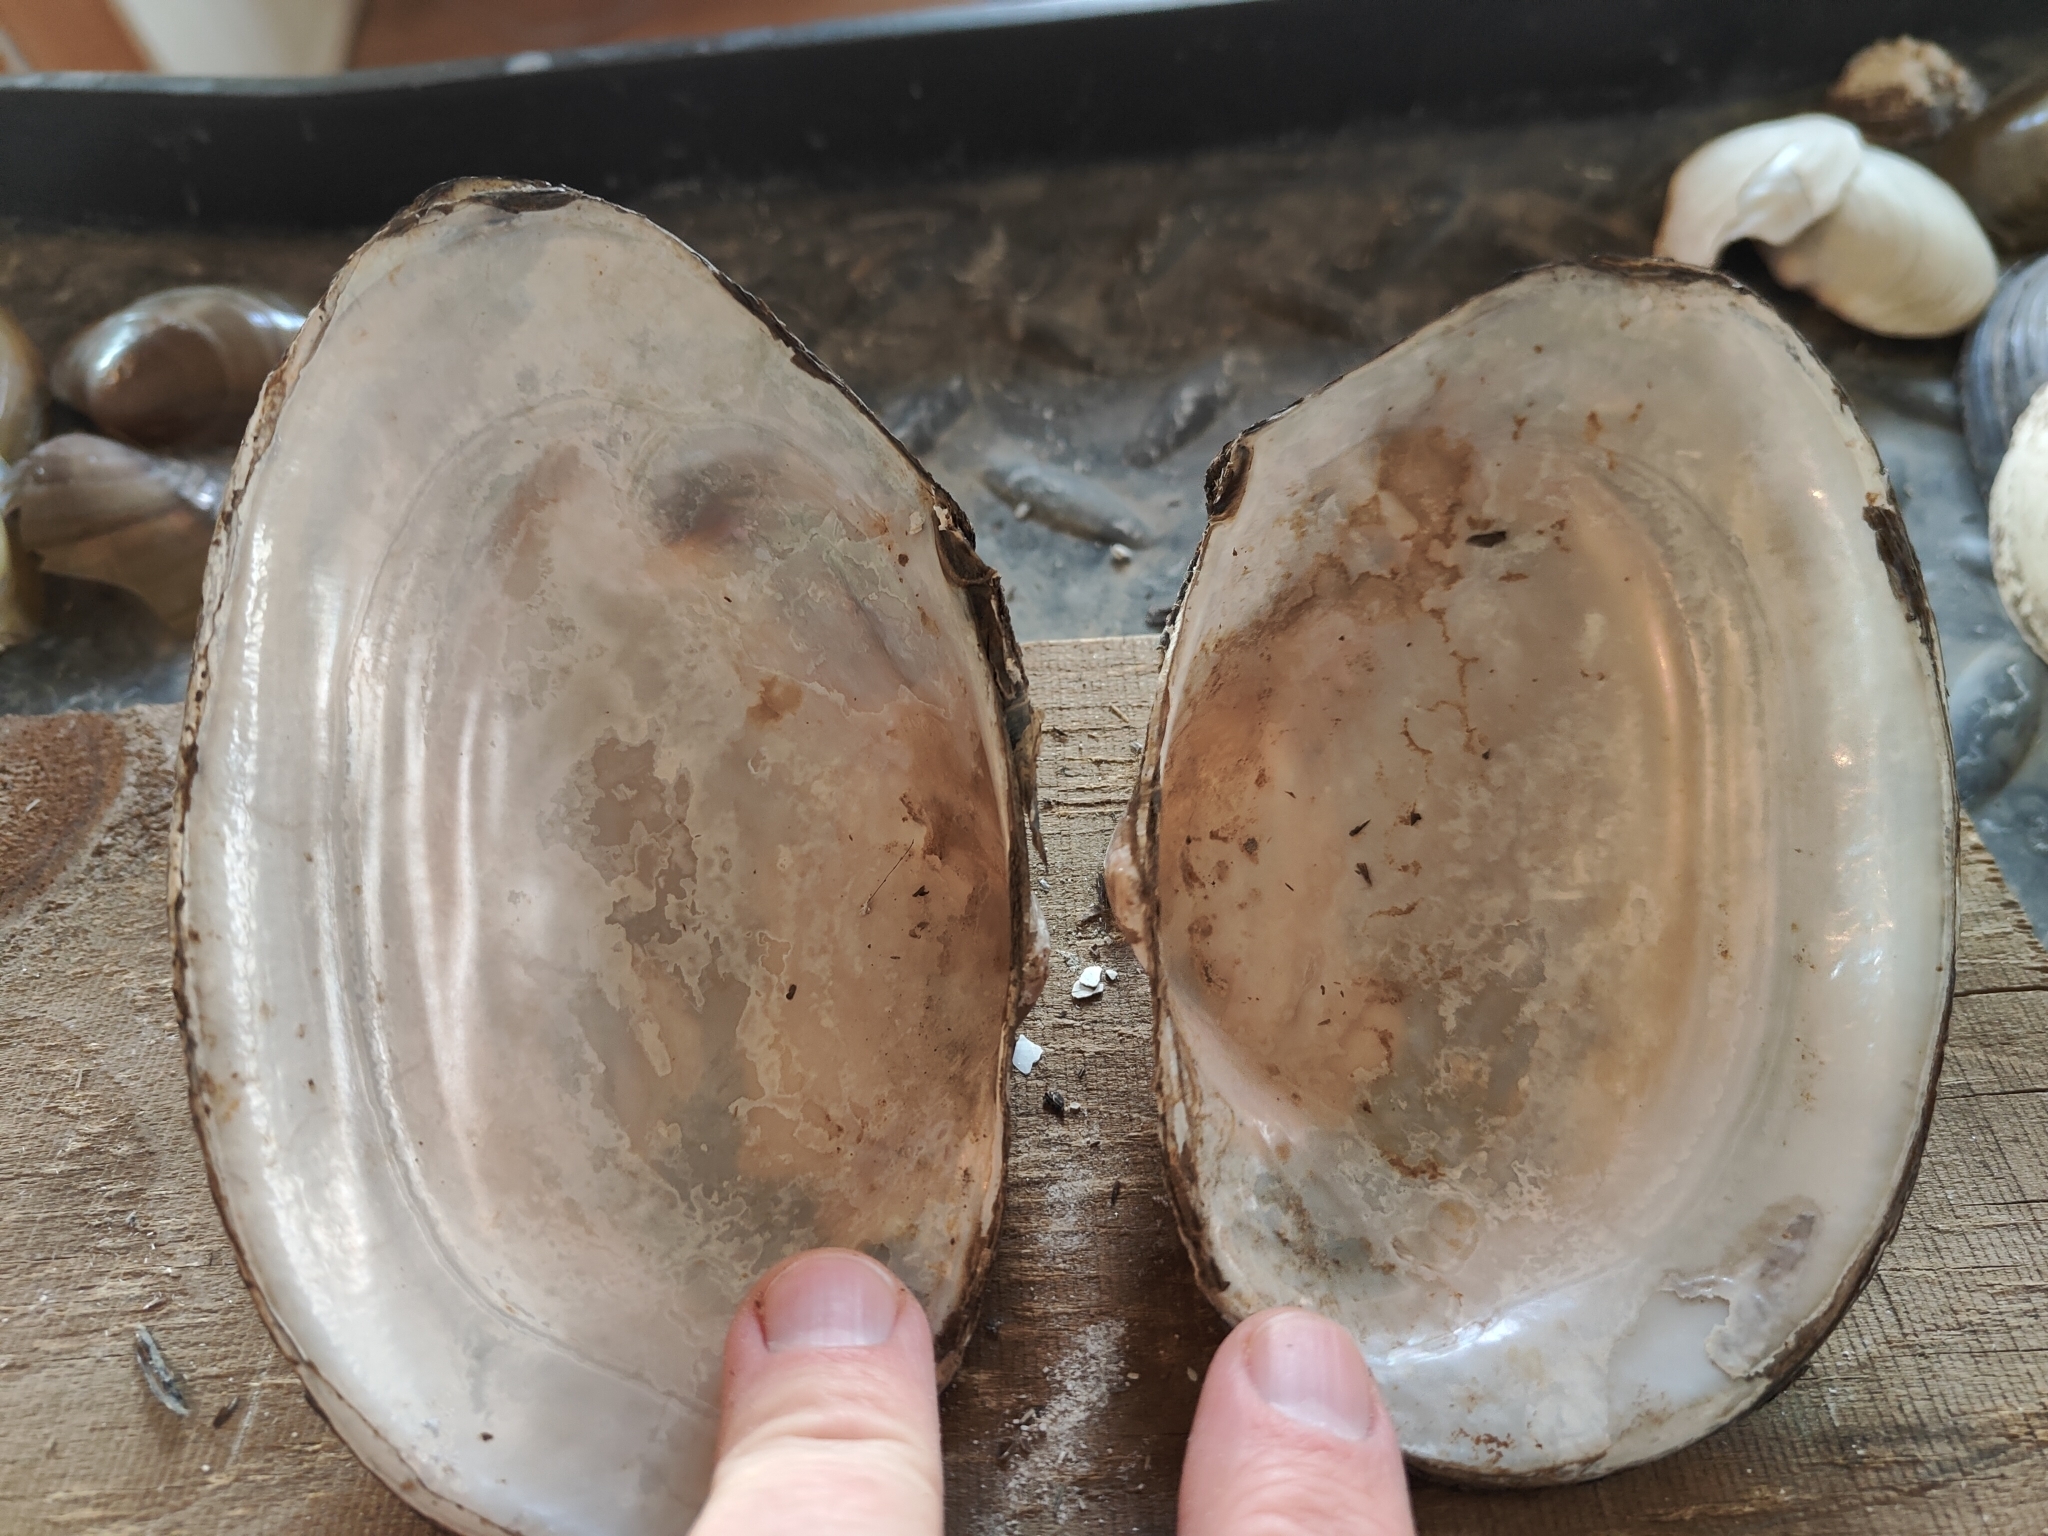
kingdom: Animalia
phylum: Mollusca
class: Bivalvia
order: Unionida
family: Unionidae
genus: Pyganodon
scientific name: Pyganodon grandis
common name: Giant floater
